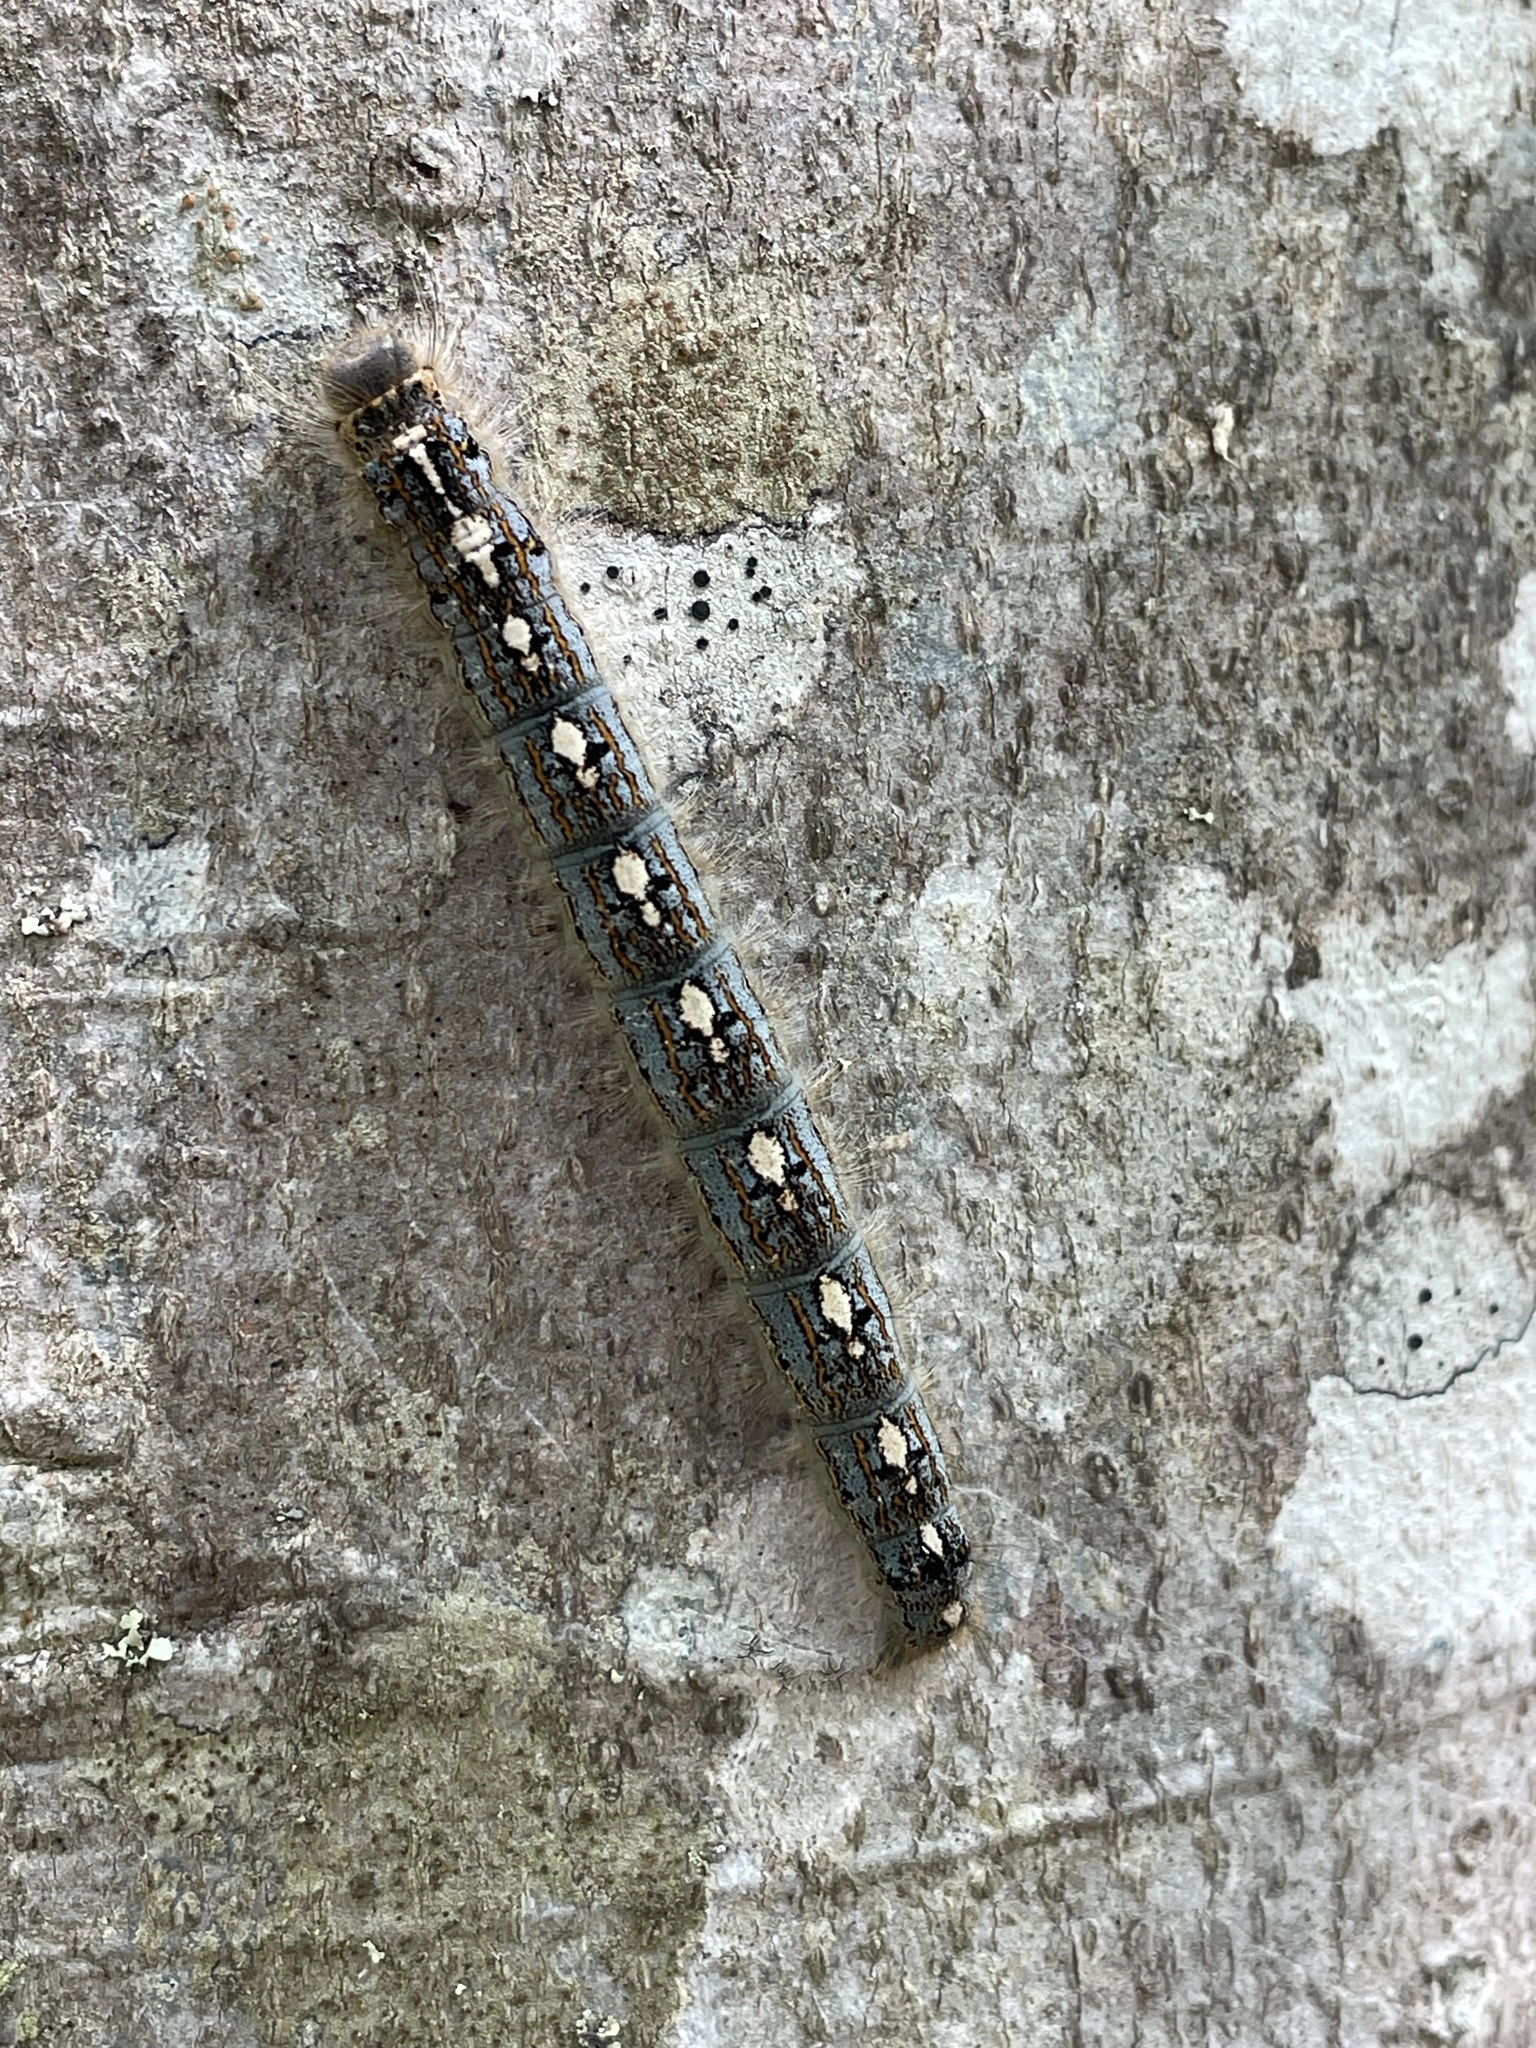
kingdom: Animalia
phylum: Arthropoda
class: Insecta
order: Lepidoptera
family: Lasiocampidae
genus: Malacosoma
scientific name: Malacosoma disstria
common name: Forest tent caterpillar
